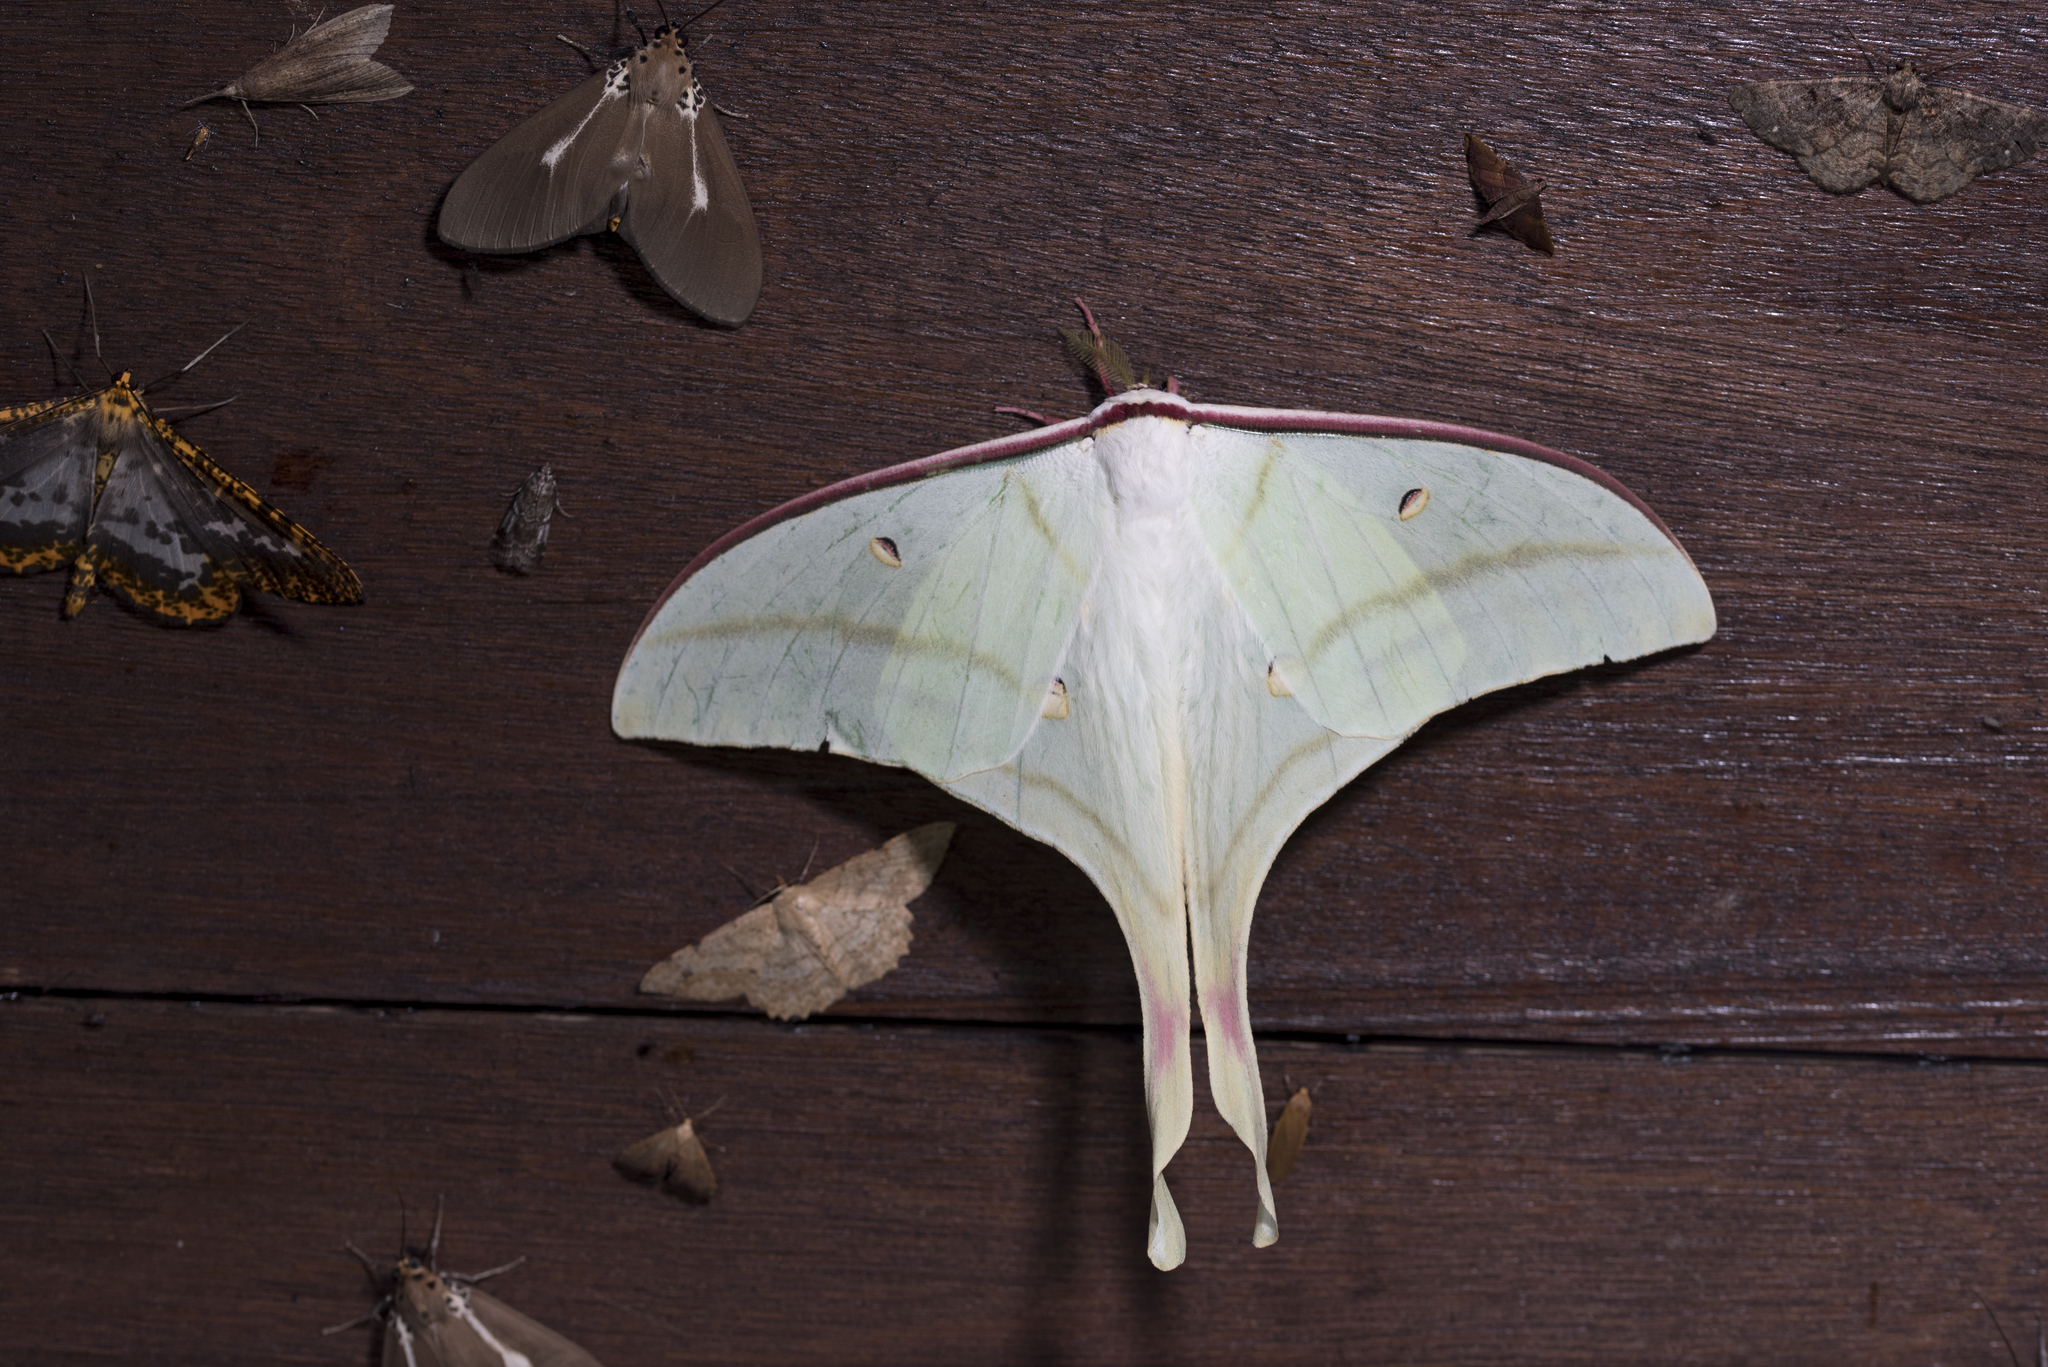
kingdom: Animalia
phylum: Arthropoda
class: Insecta
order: Lepidoptera
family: Saturniidae
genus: Actias
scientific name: Actias ningpoana
